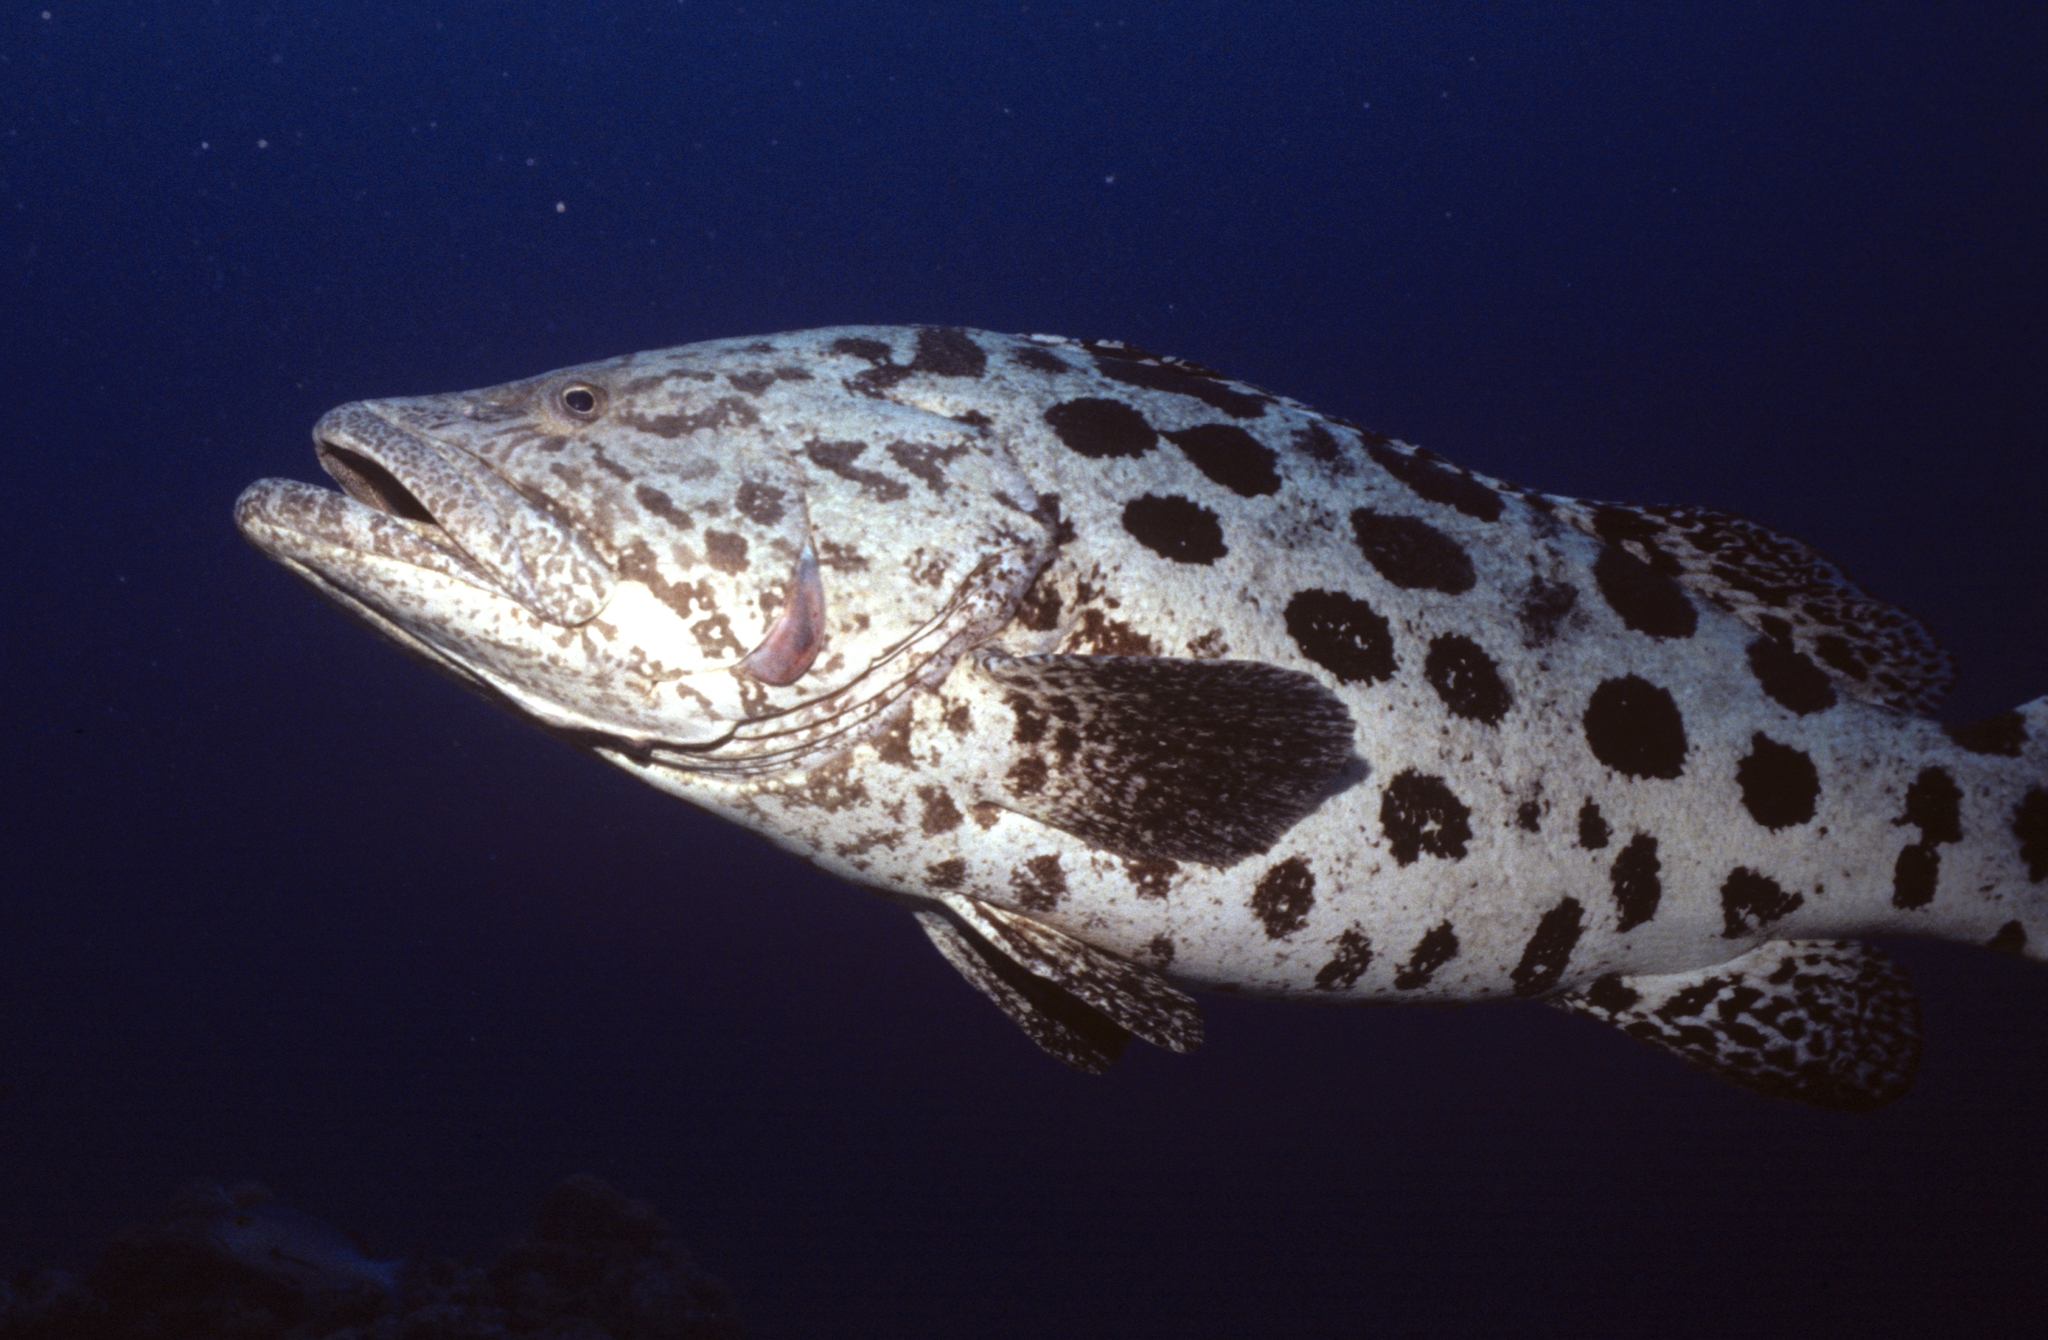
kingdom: Animalia
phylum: Chordata
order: Perciformes
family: Serranidae
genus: Epinephelus
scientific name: Epinephelus tukula
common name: Potato cod
